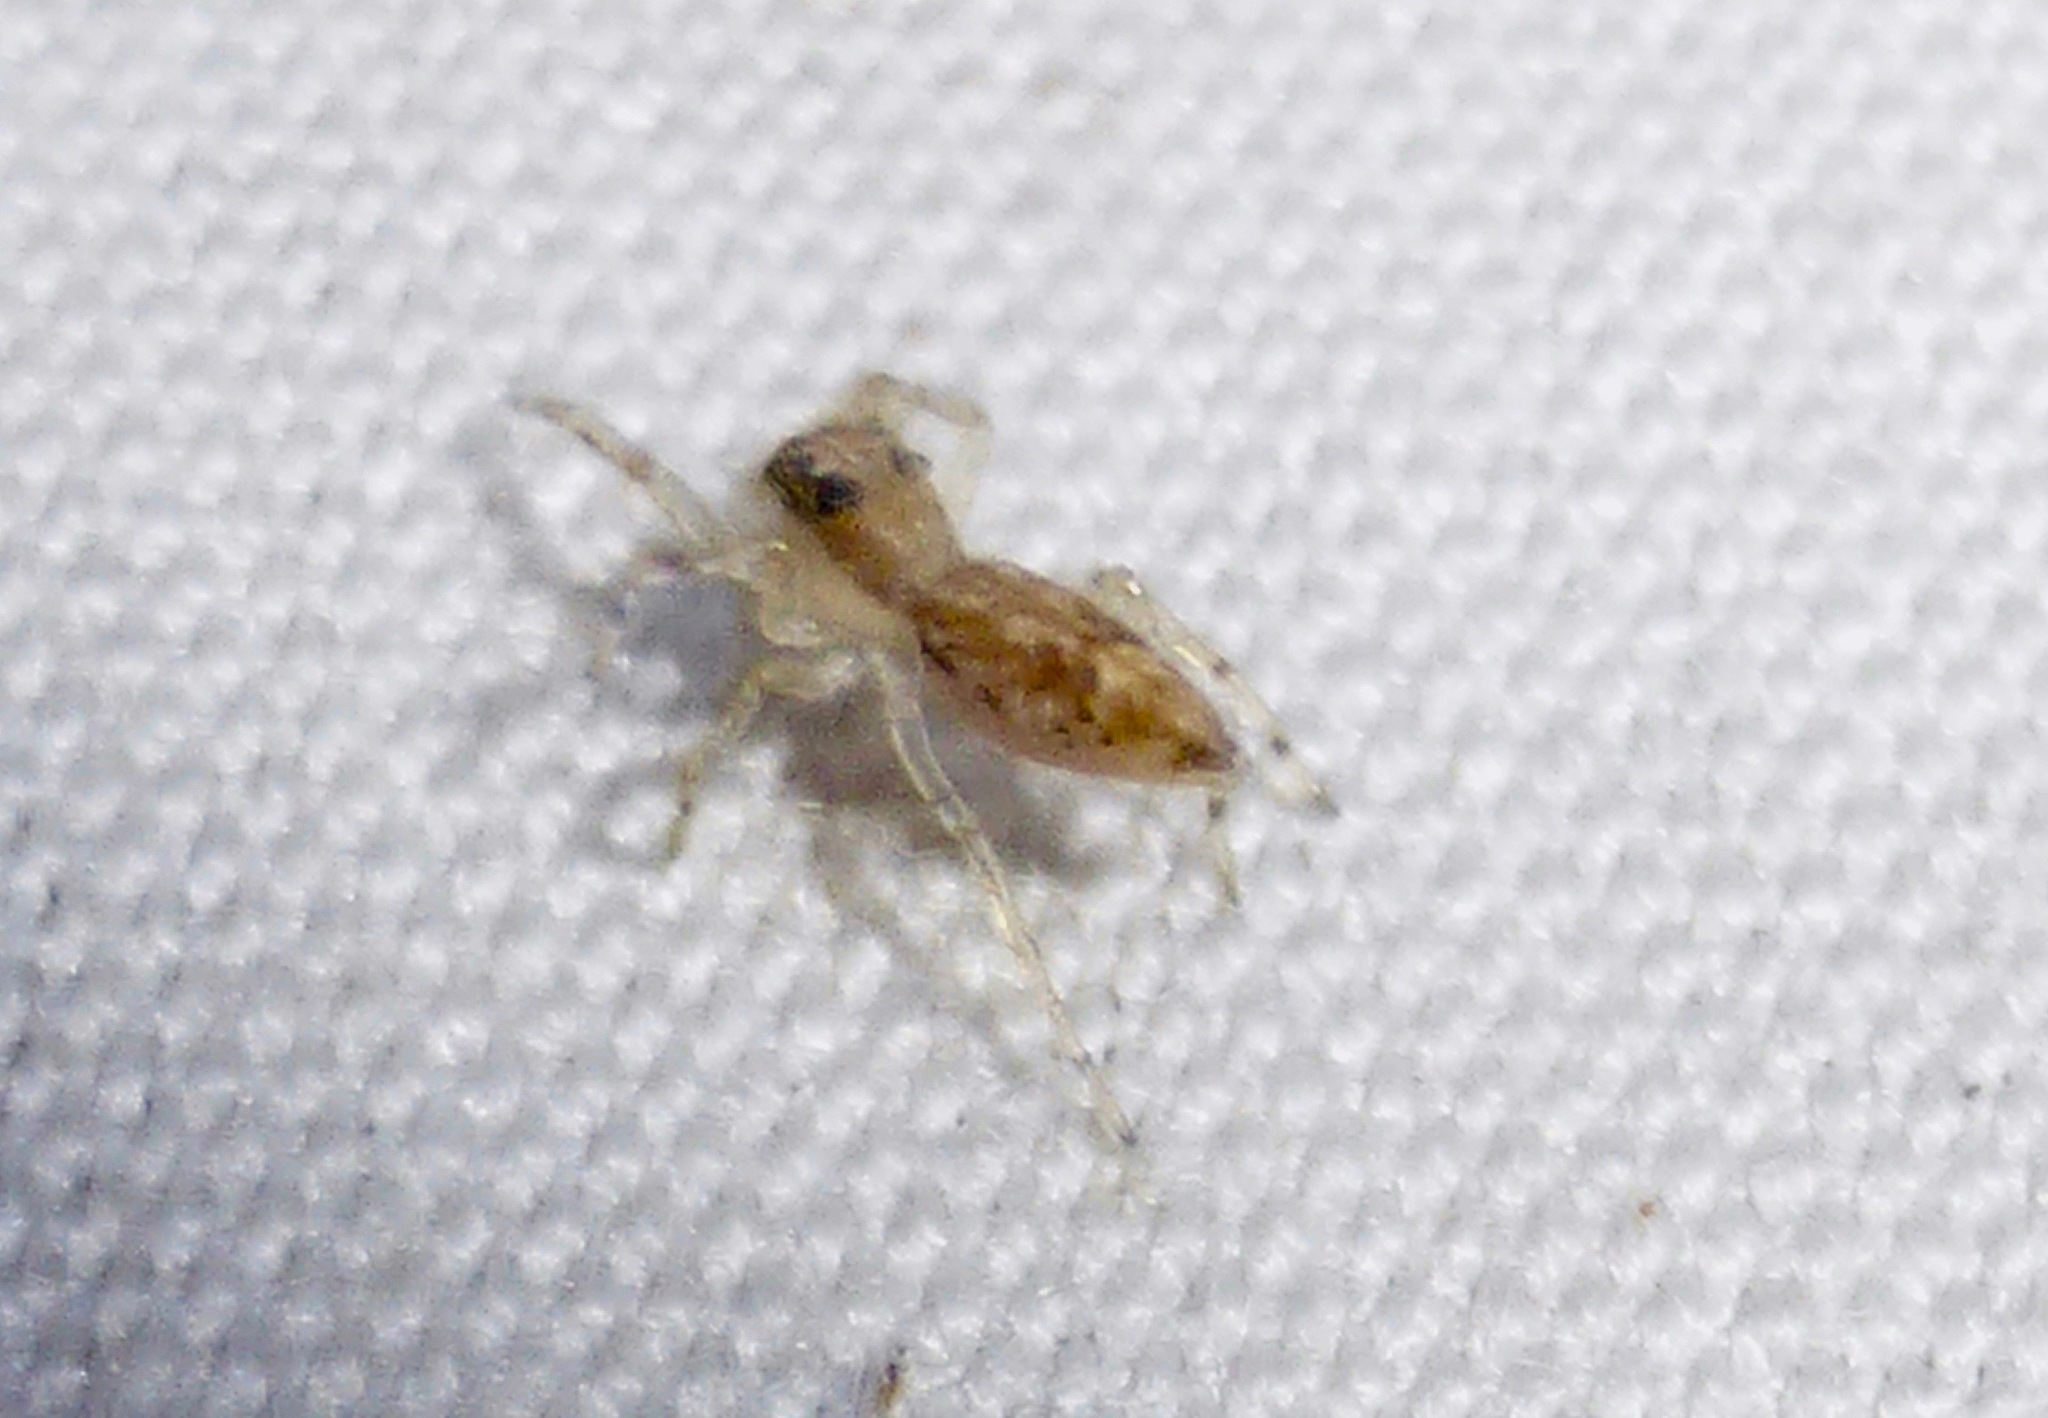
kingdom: Animalia
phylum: Arthropoda
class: Arachnida
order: Araneae
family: Salticidae
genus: Helpis
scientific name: Helpis minitabunda
